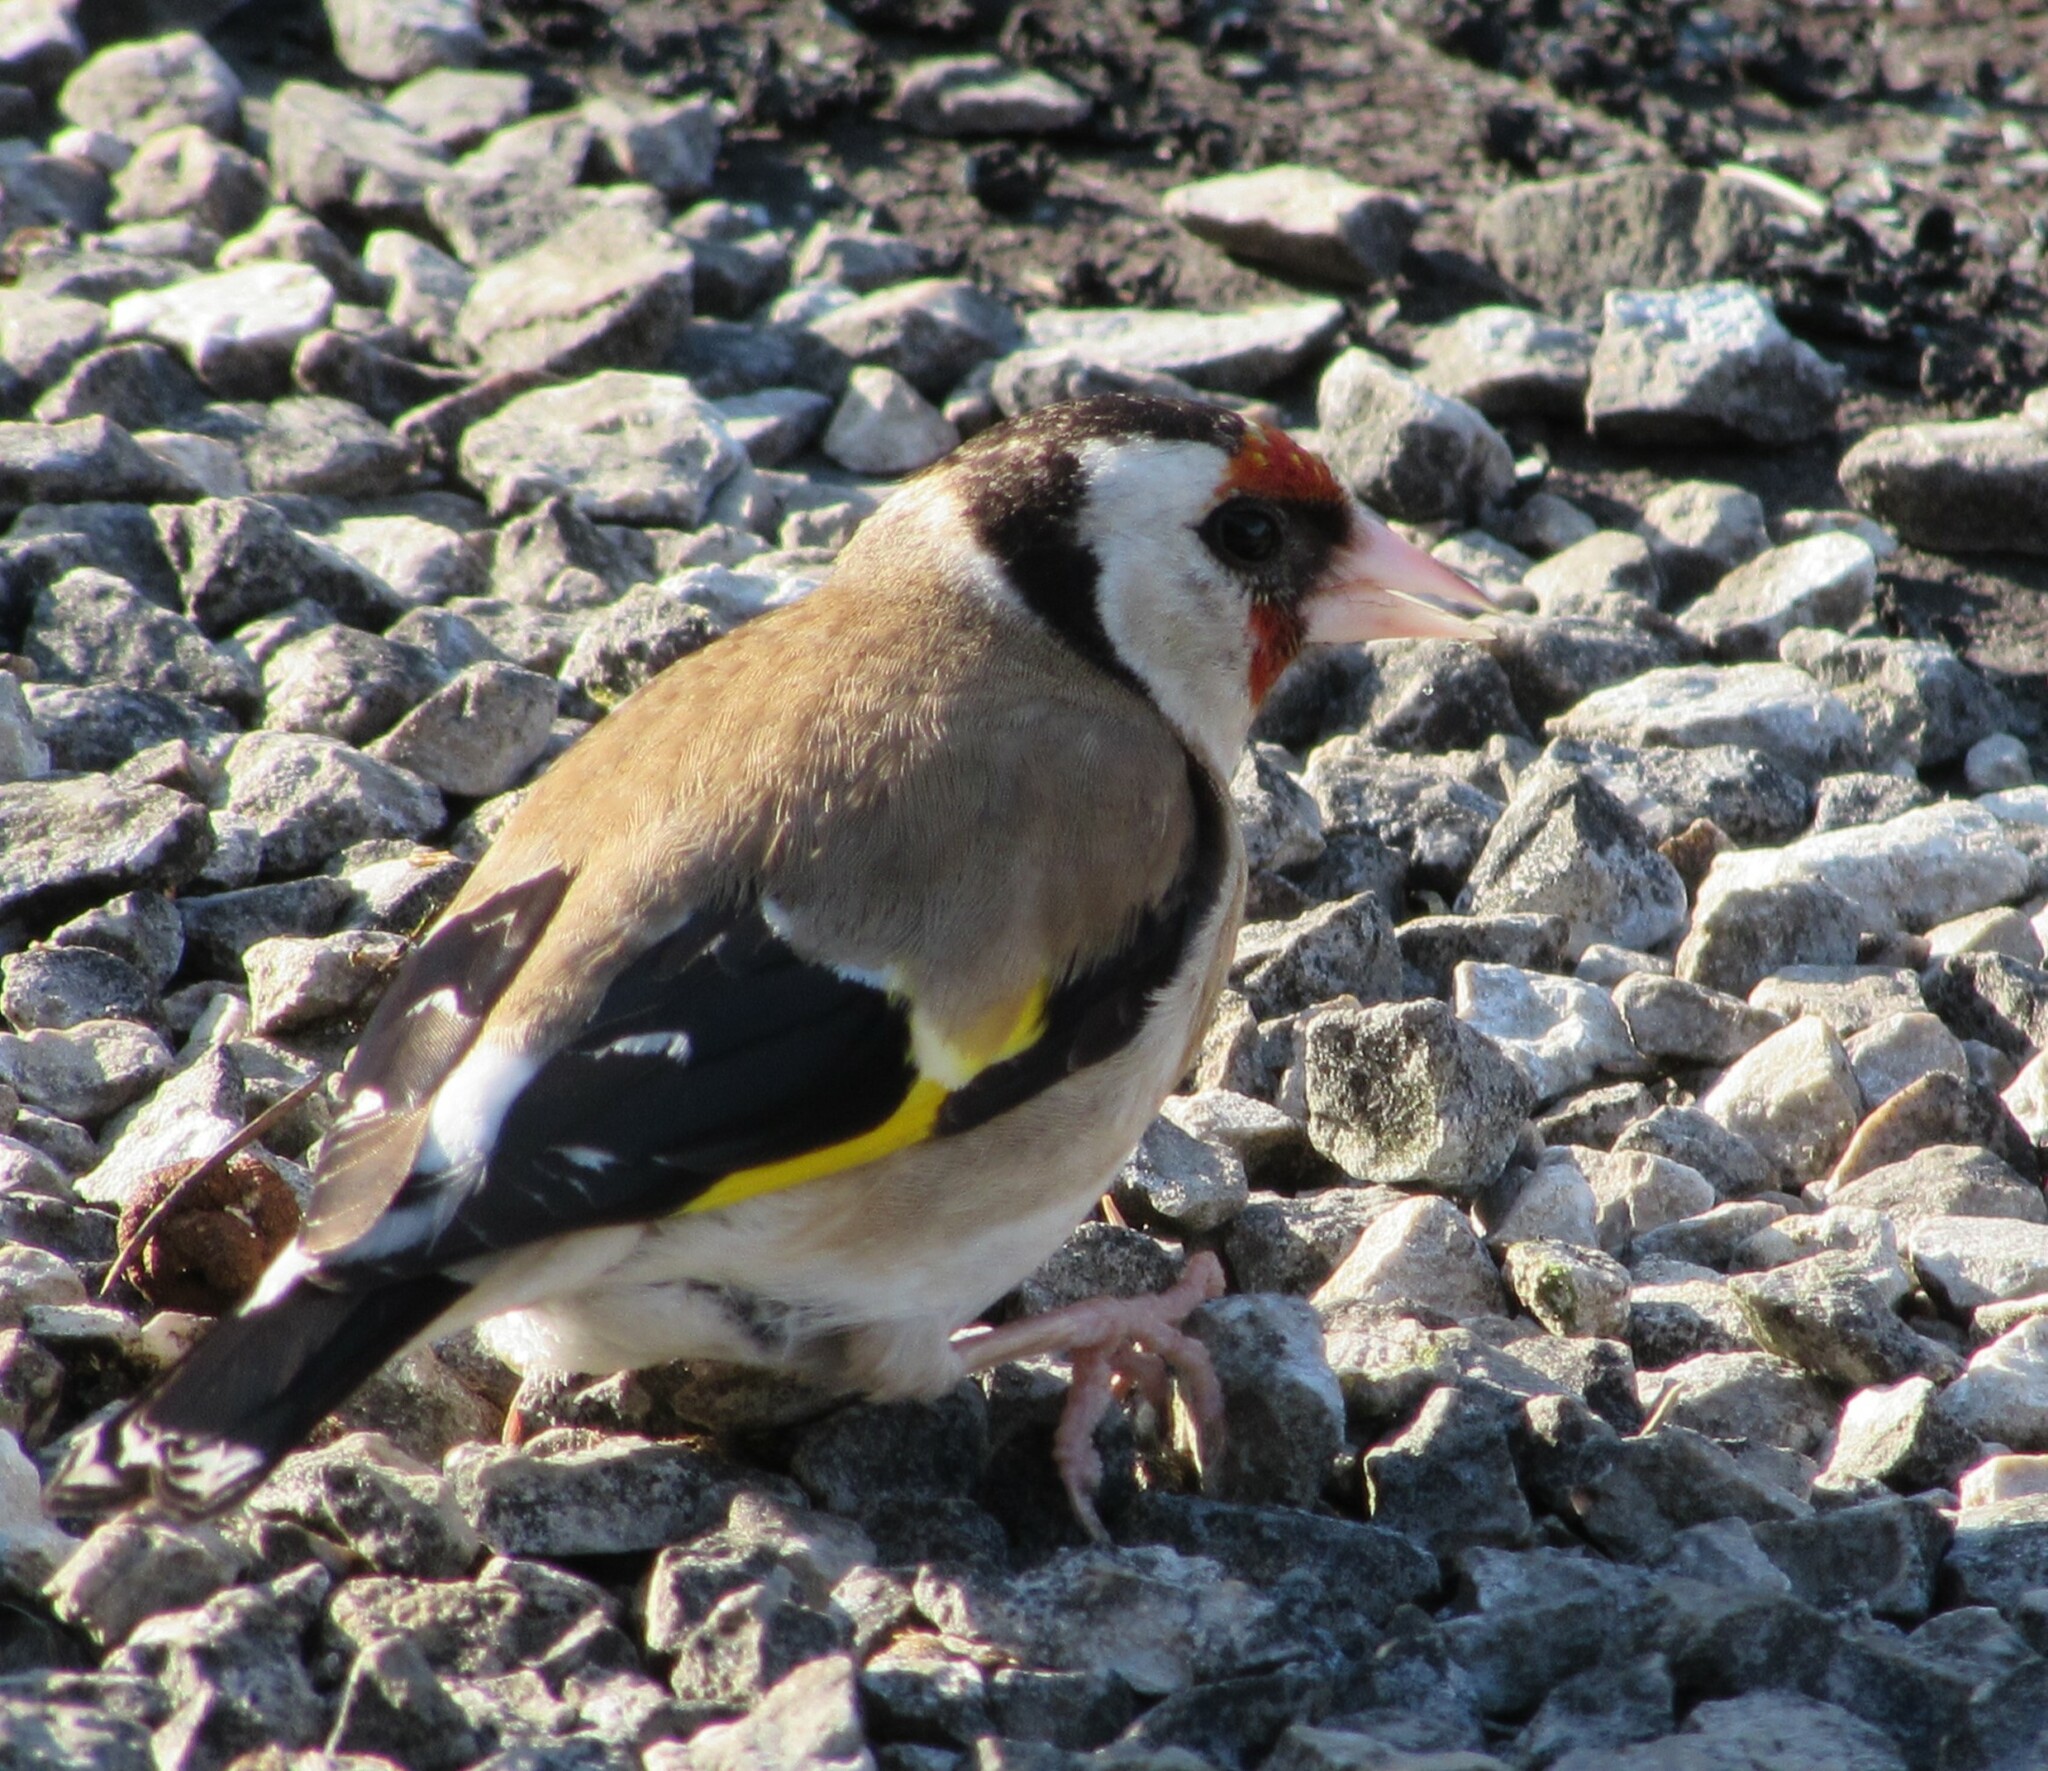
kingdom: Animalia
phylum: Chordata
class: Aves
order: Passeriformes
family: Fringillidae
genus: Carduelis
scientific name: Carduelis carduelis
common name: European goldfinch
